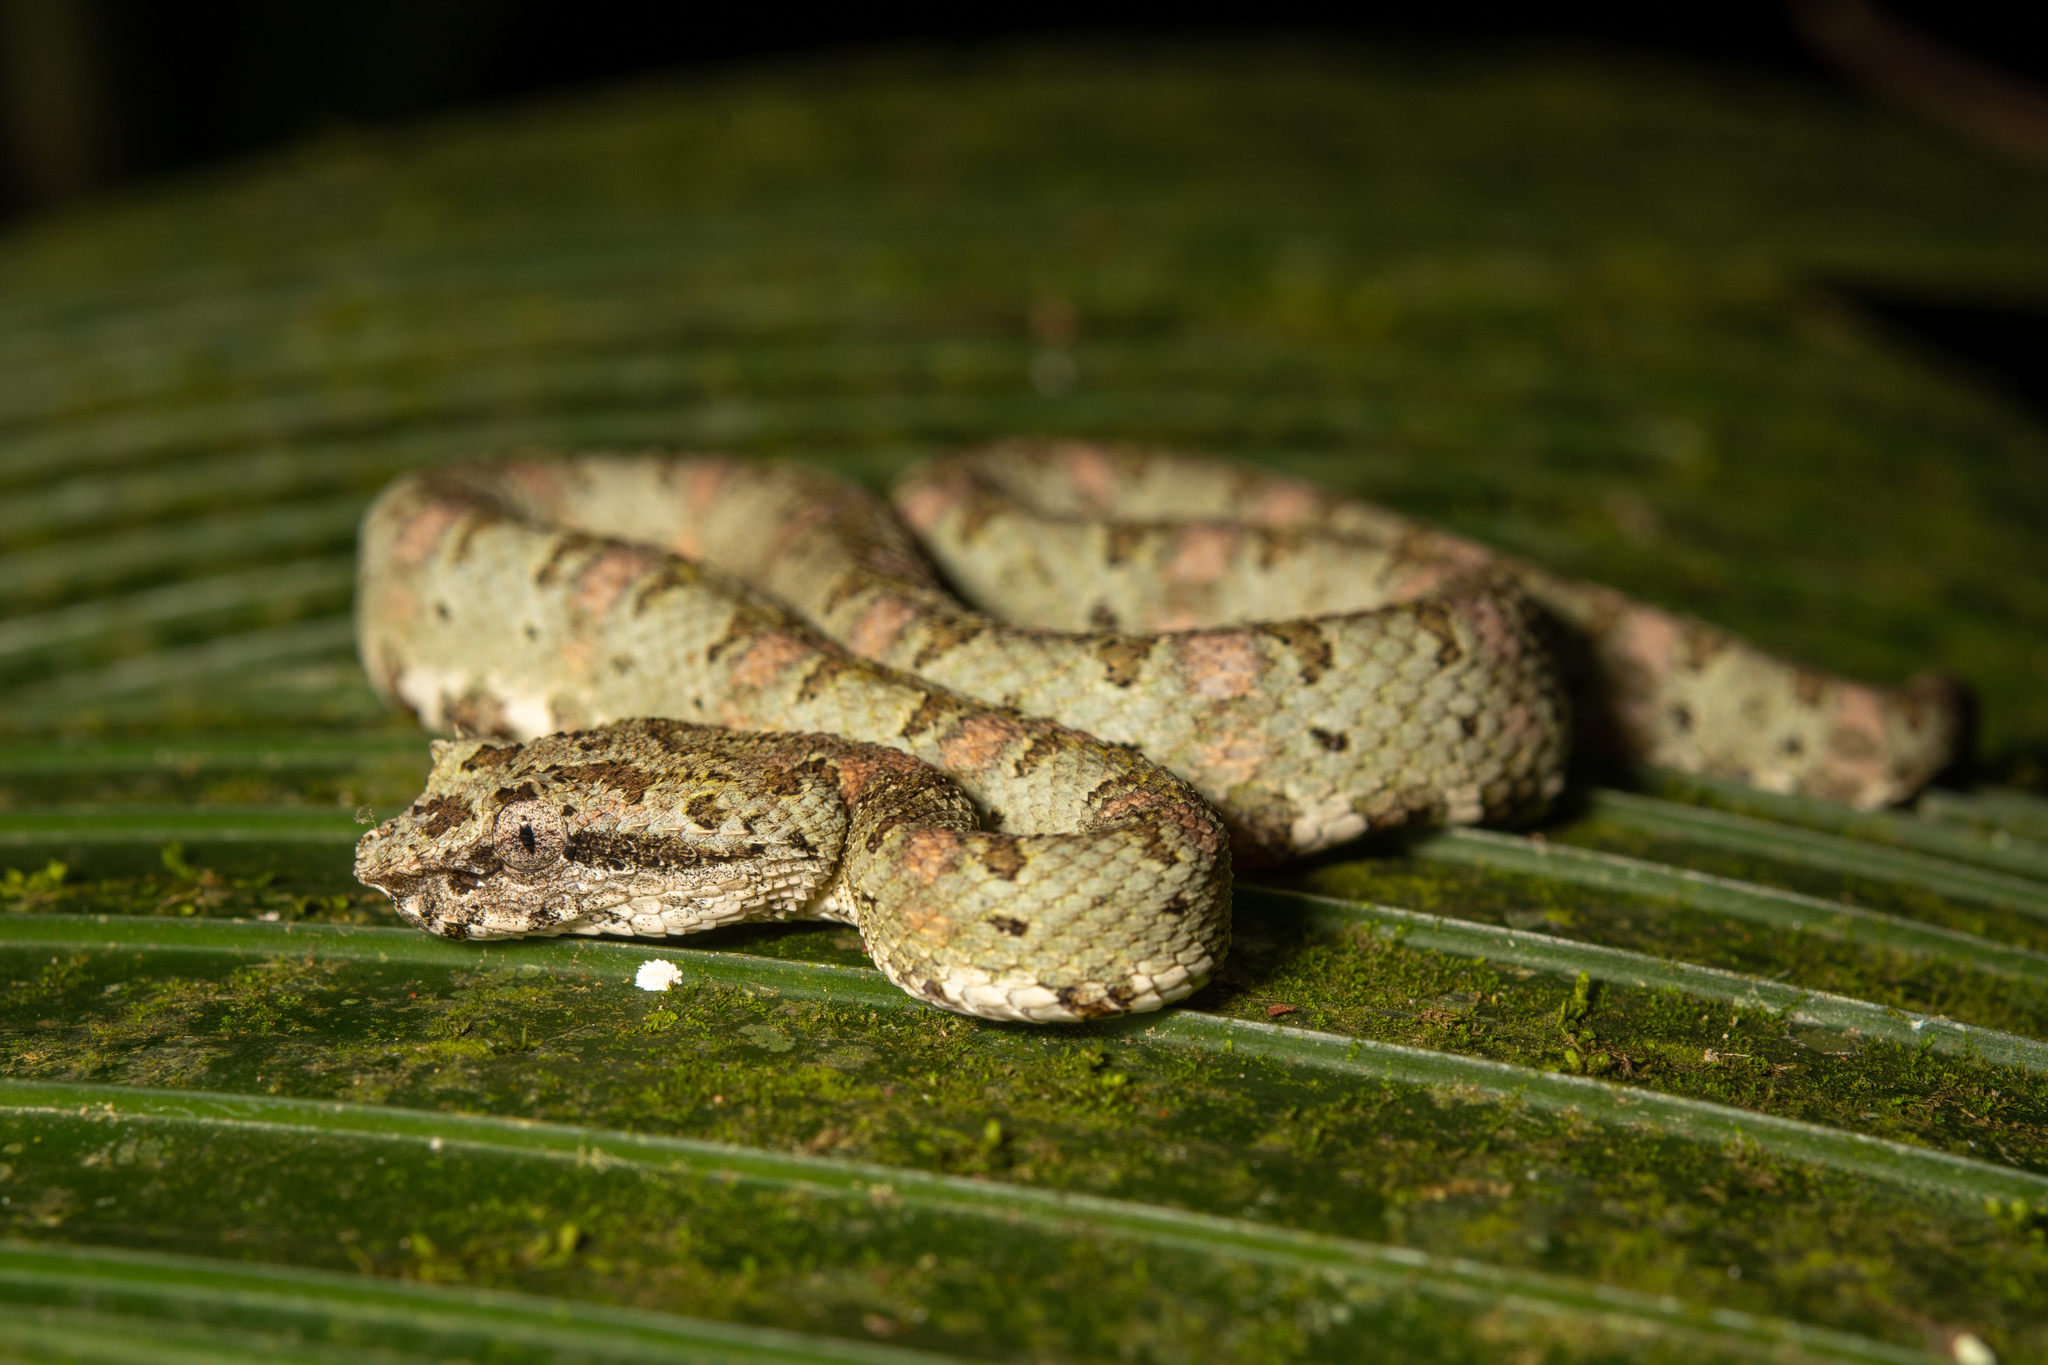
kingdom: Animalia
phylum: Chordata
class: Squamata
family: Viperidae
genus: Bothriechis
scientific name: Bothriechis schlegelii
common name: Eyelash viper
